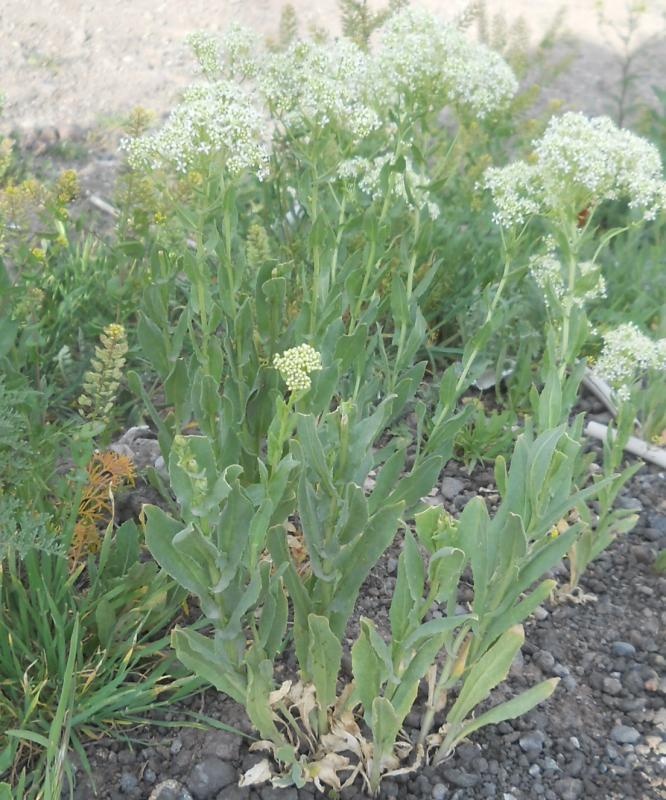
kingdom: Plantae
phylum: Tracheophyta
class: Magnoliopsida
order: Brassicales
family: Brassicaceae
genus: Lepidium
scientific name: Lepidium draba
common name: Hoary cress
